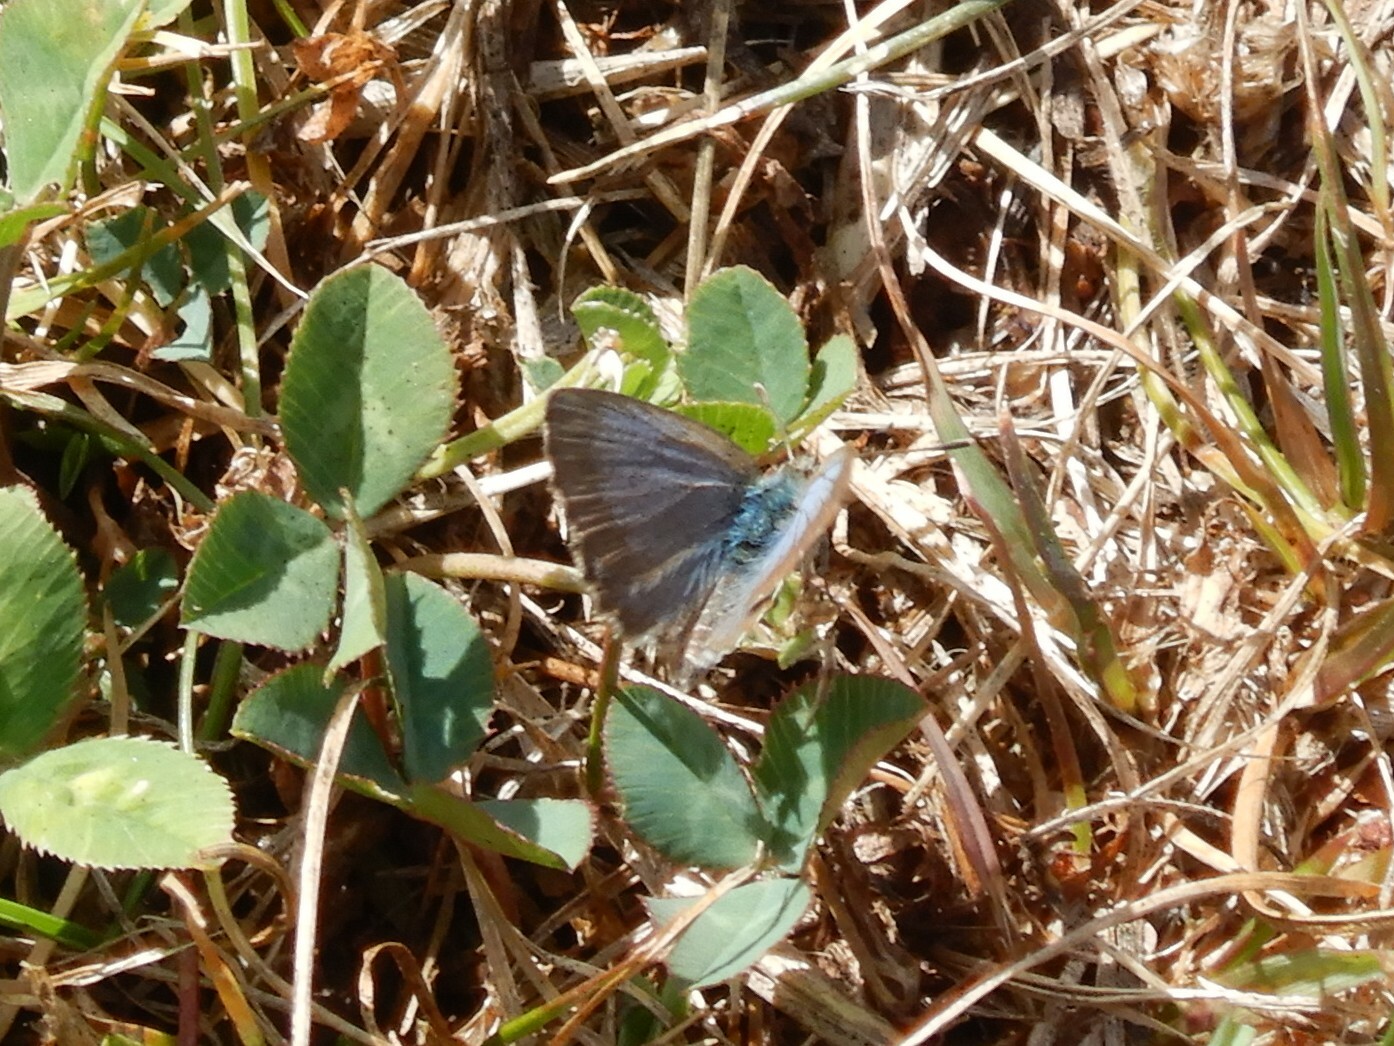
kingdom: Animalia
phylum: Arthropoda
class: Insecta
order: Lepidoptera
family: Lycaenidae
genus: Zizina
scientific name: Zizina oxleyi
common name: Southern blue
